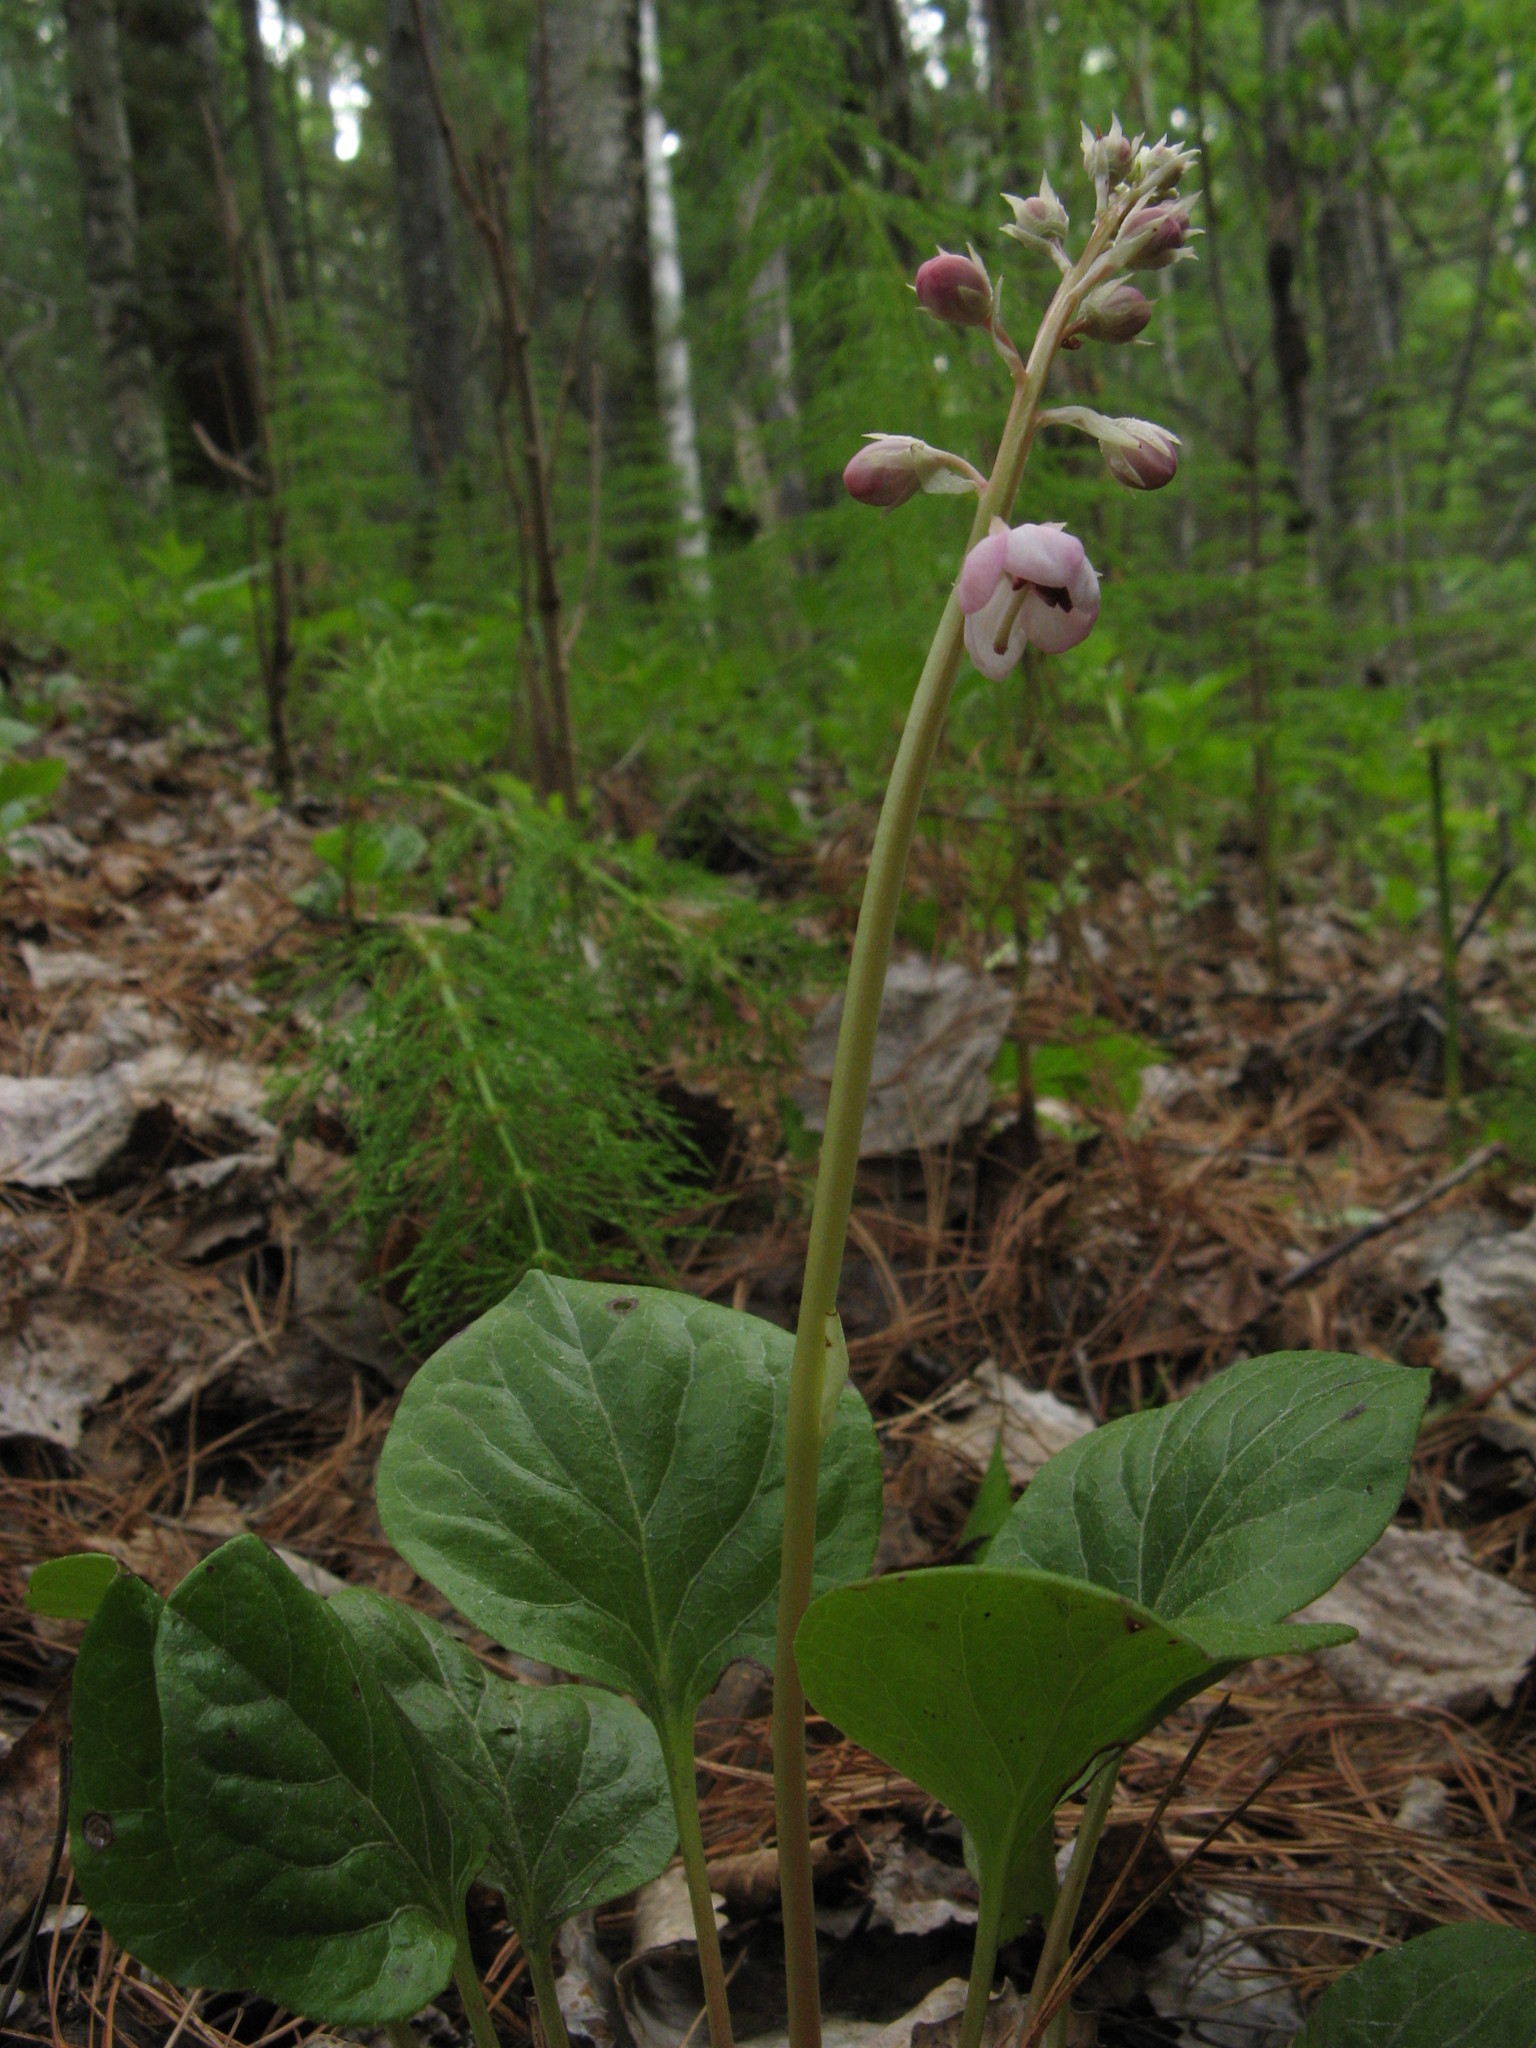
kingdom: Plantae
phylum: Tracheophyta
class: Magnoliopsida
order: Ericales
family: Ericaceae
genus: Pyrola
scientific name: Pyrola asarifolia
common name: Bog wintergreen
